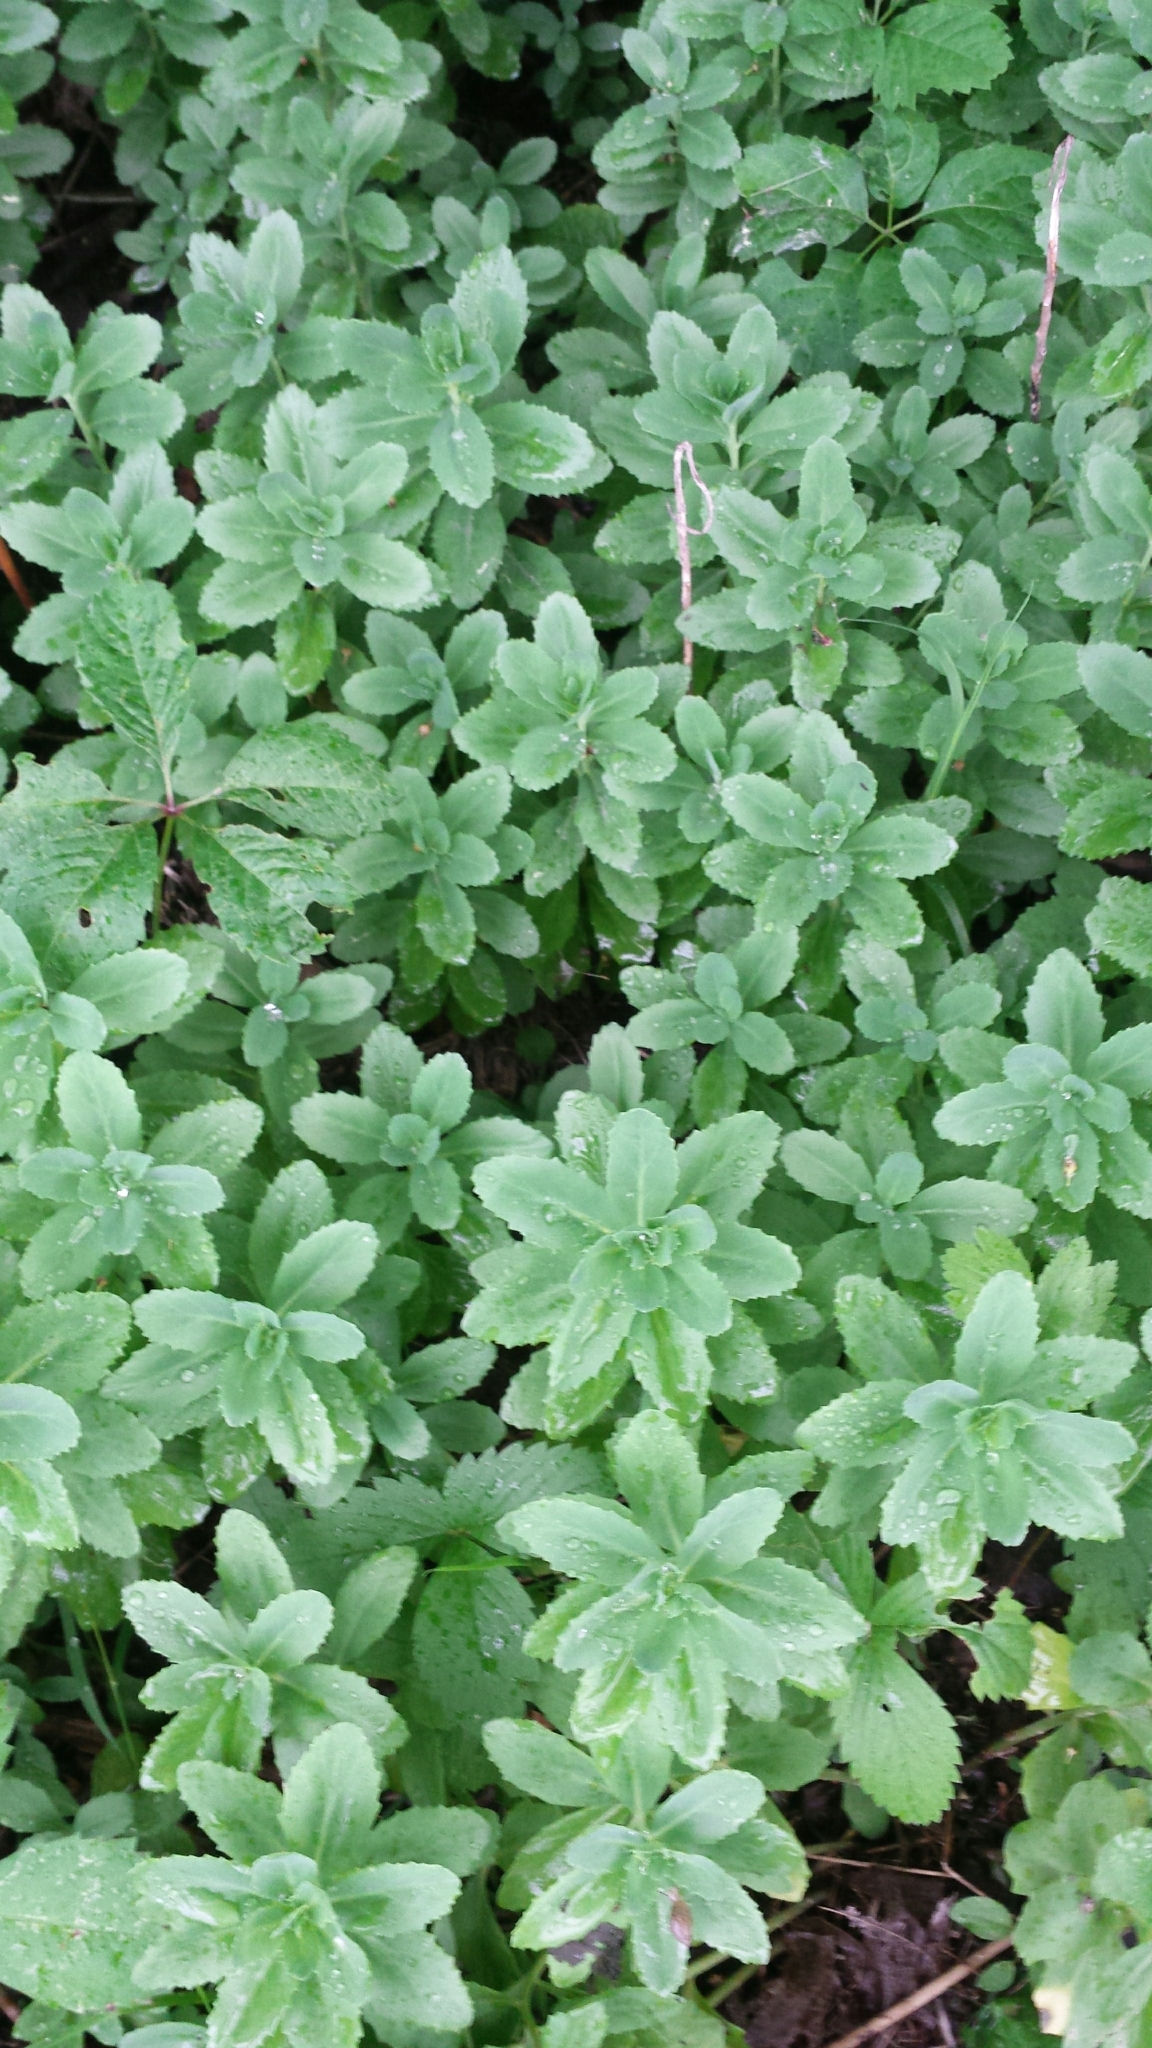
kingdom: Plantae
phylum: Tracheophyta
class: Magnoliopsida
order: Saxifragales
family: Crassulaceae
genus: Hylotelephium
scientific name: Hylotelephium telephium
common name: Live-forever
